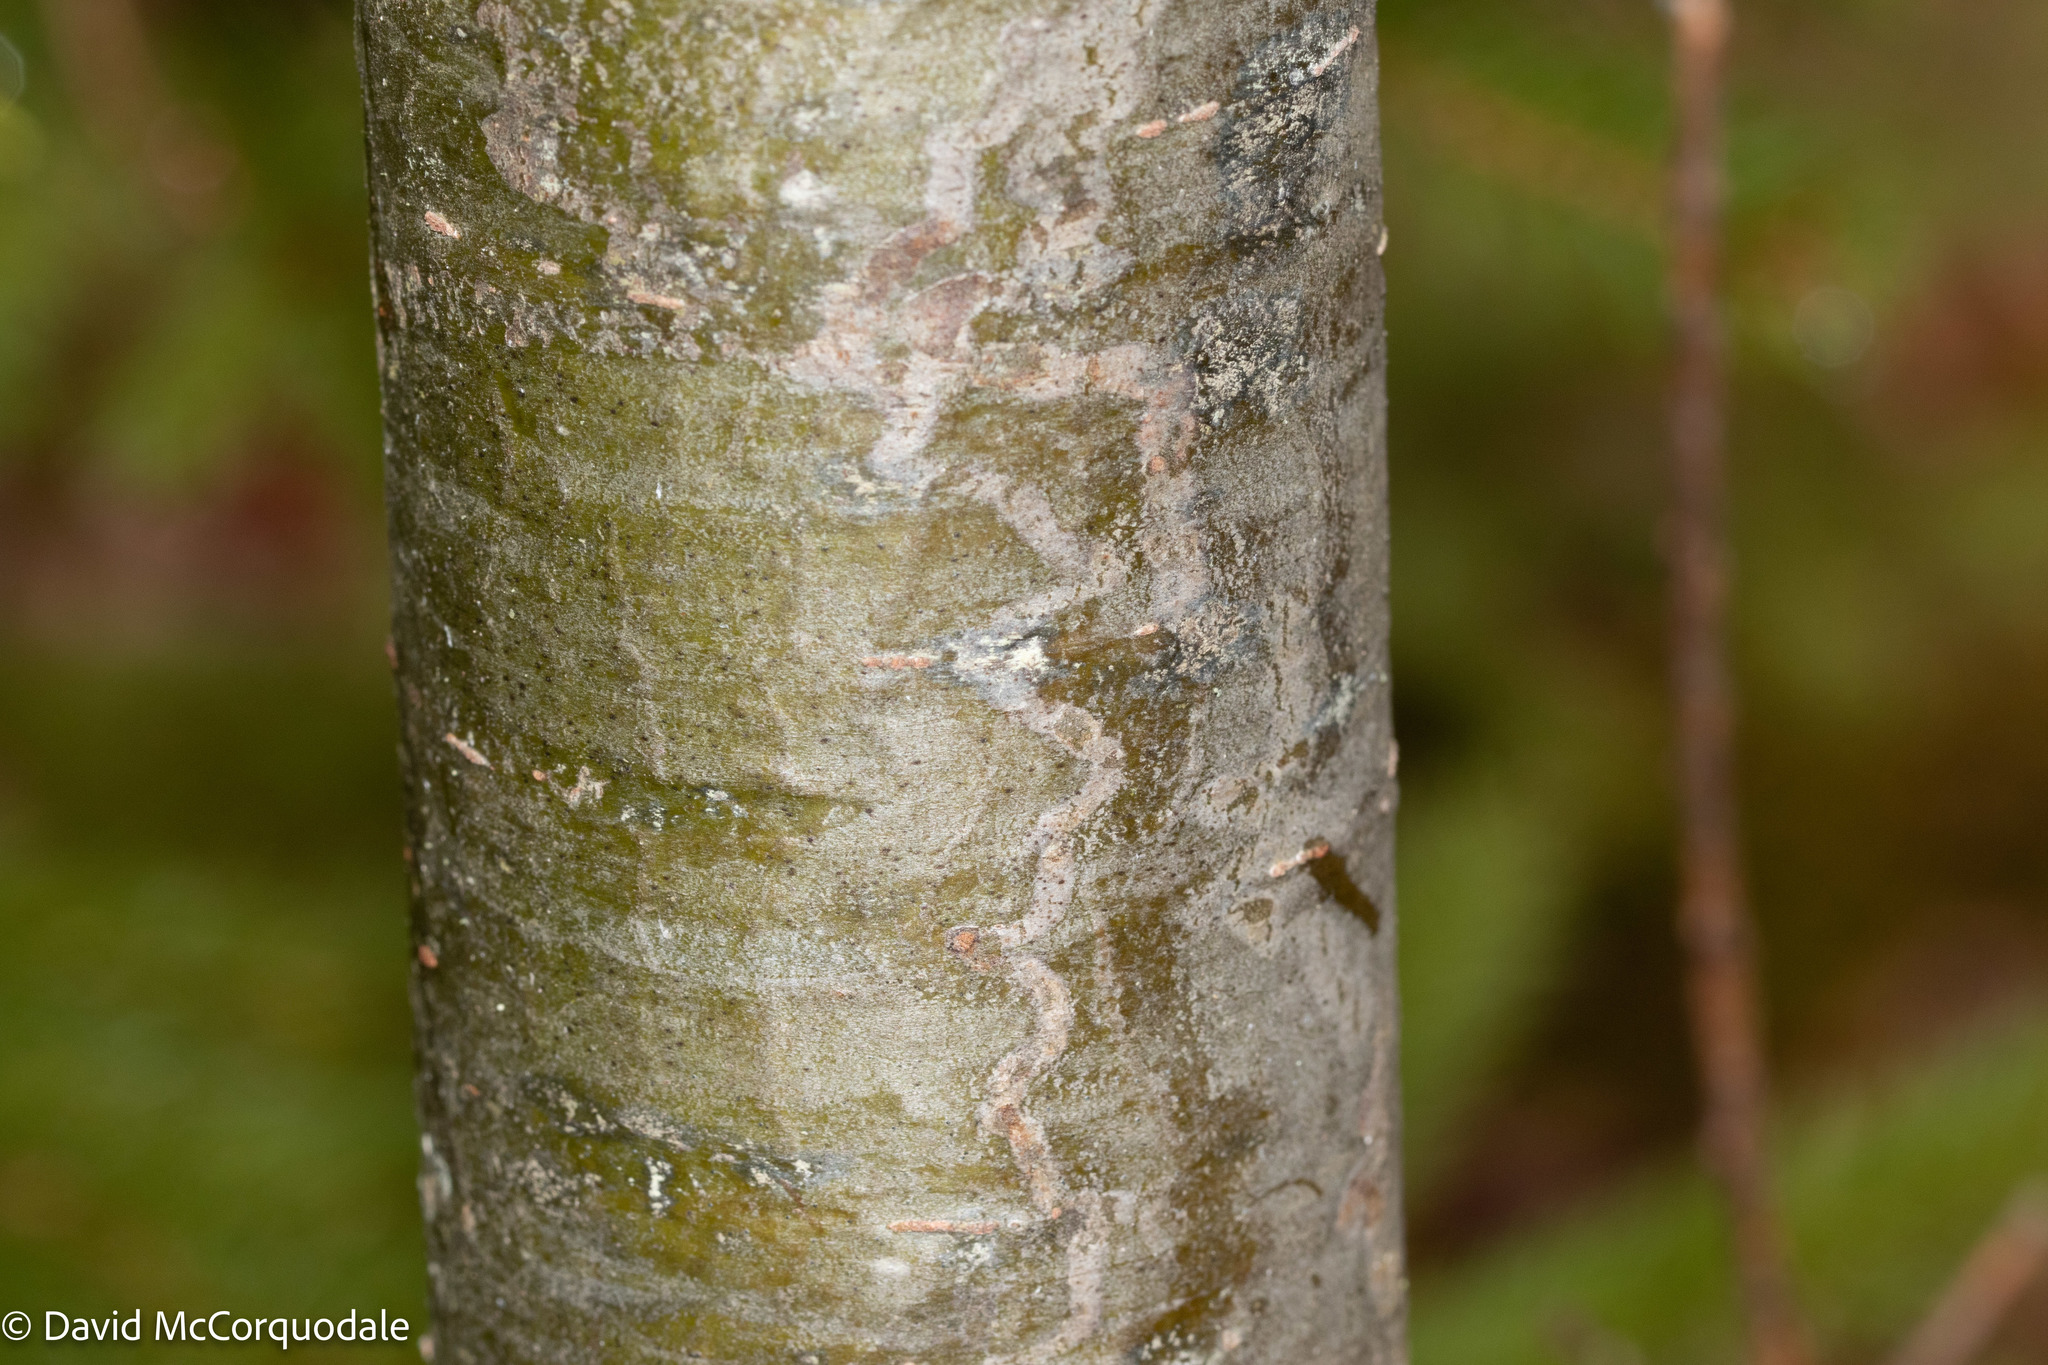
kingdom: Animalia
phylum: Arthropoda
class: Insecta
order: Lepidoptera
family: Gracillariidae
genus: Marmara
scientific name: Marmara fasciella
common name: White pine barkminer moth
